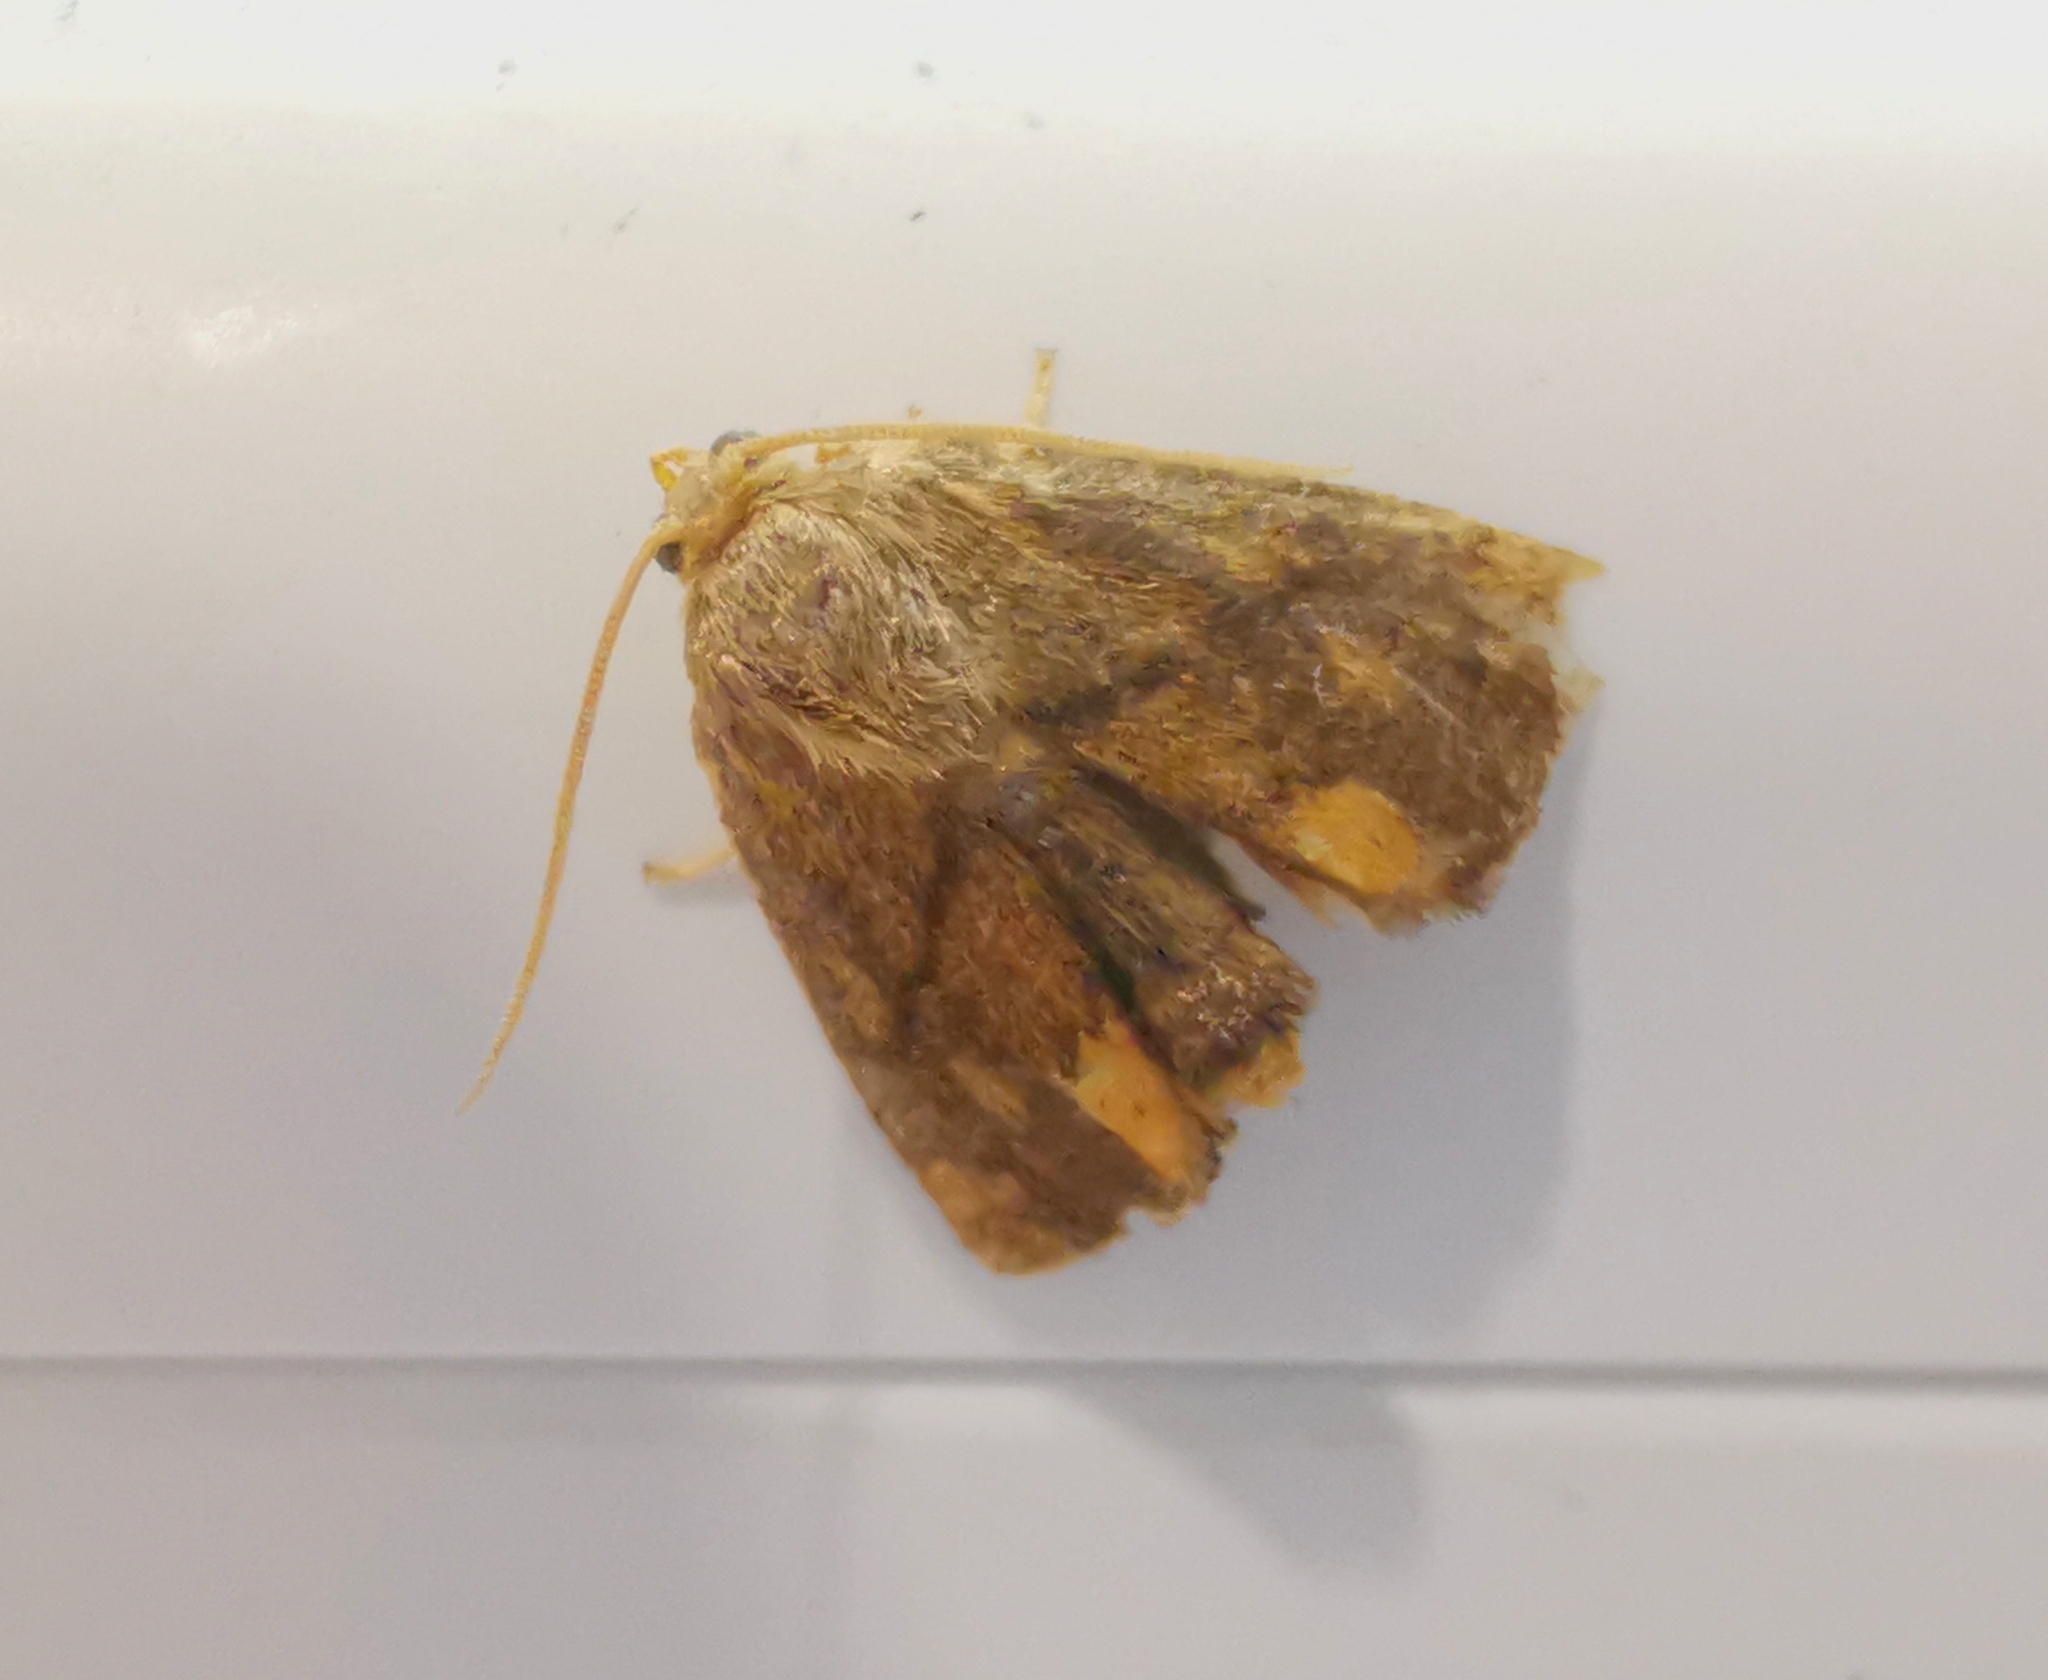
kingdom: Animalia
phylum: Arthropoda
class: Insecta
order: Lepidoptera
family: Limacodidae
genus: Apoda
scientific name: Apoda limacodes
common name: Festoon
